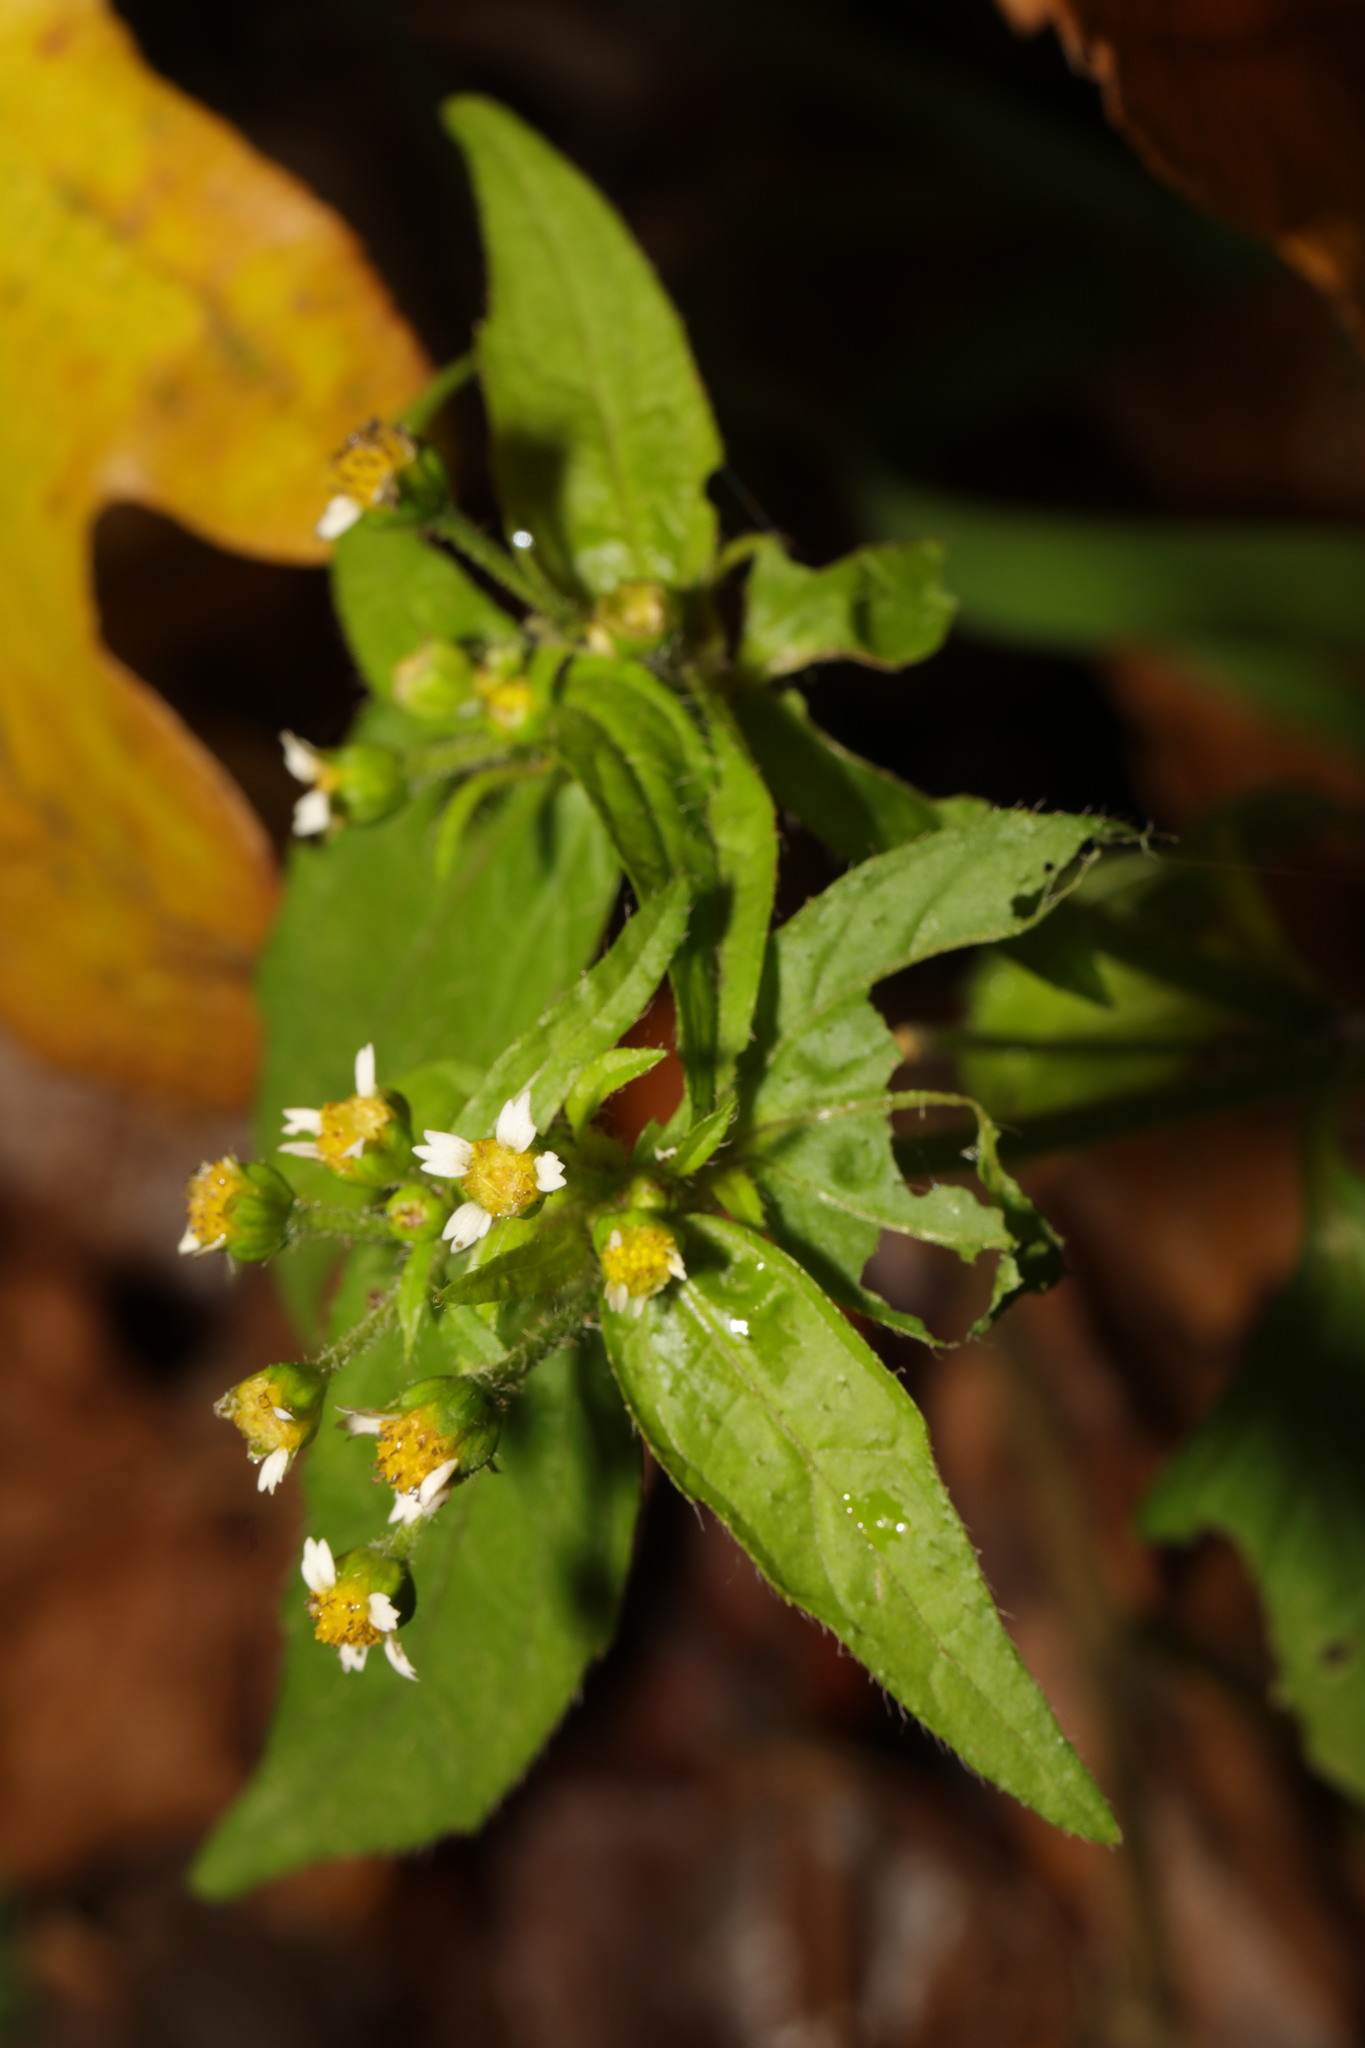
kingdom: Plantae
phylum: Tracheophyta
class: Magnoliopsida
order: Asterales
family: Asteraceae
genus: Galinsoga
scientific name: Galinsoga quadriradiata
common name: Shaggy soldier
